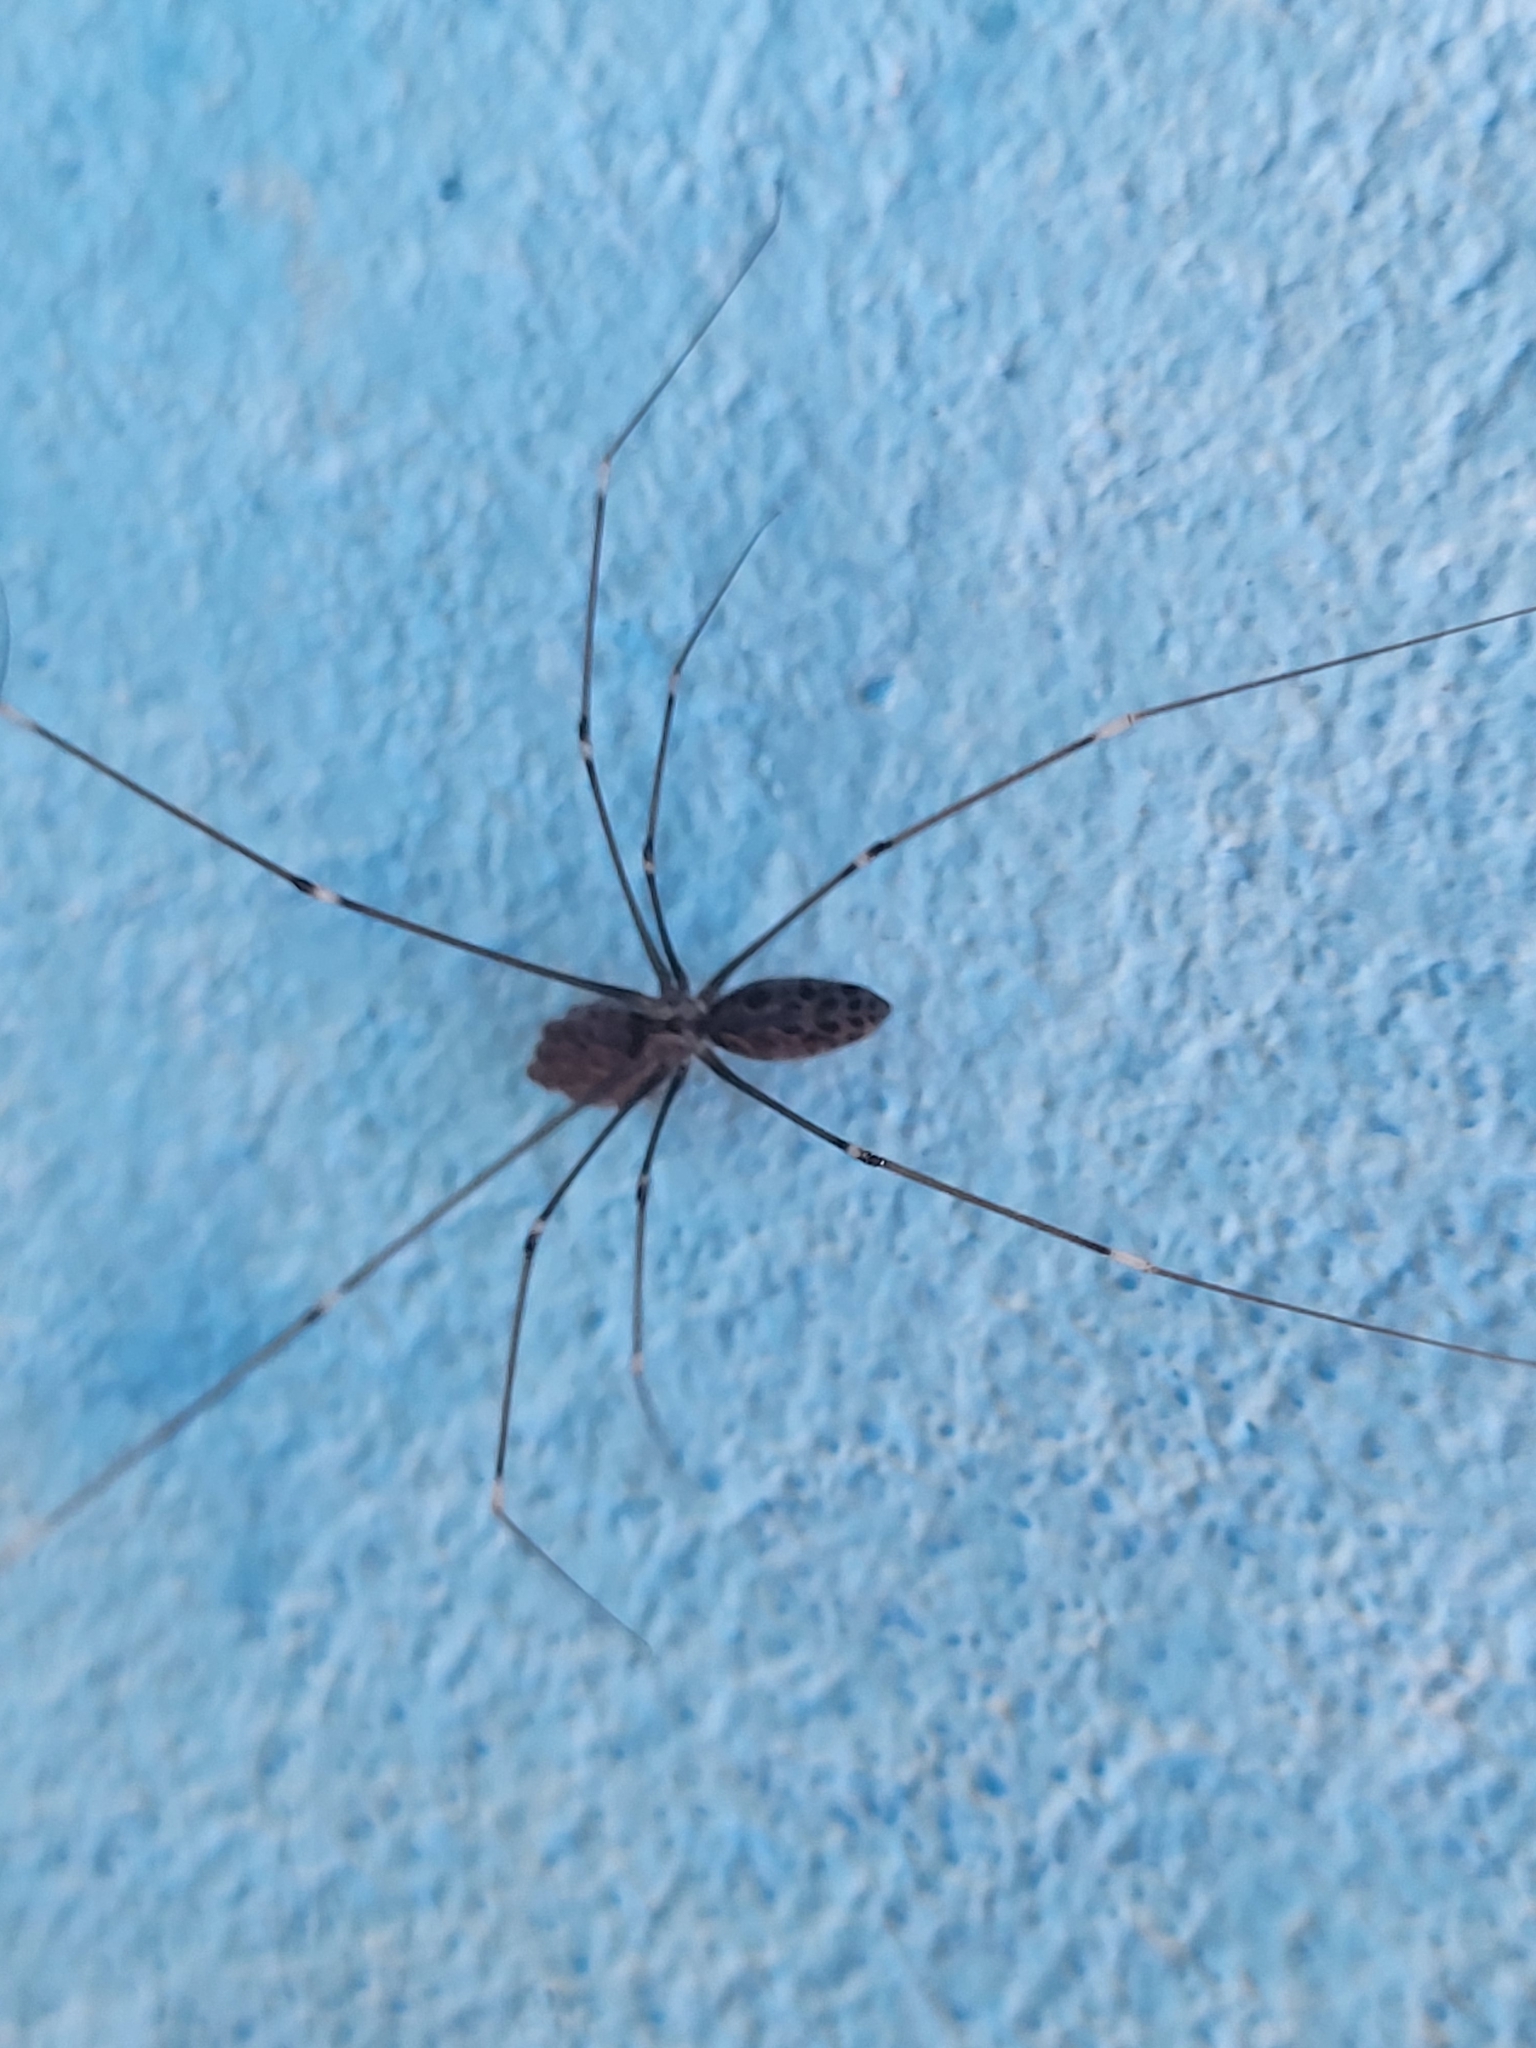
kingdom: Animalia
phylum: Arthropoda
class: Arachnida
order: Araneae
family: Pholcidae
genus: Smeringopus
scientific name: Smeringopus pallidus
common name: Cellar spider
